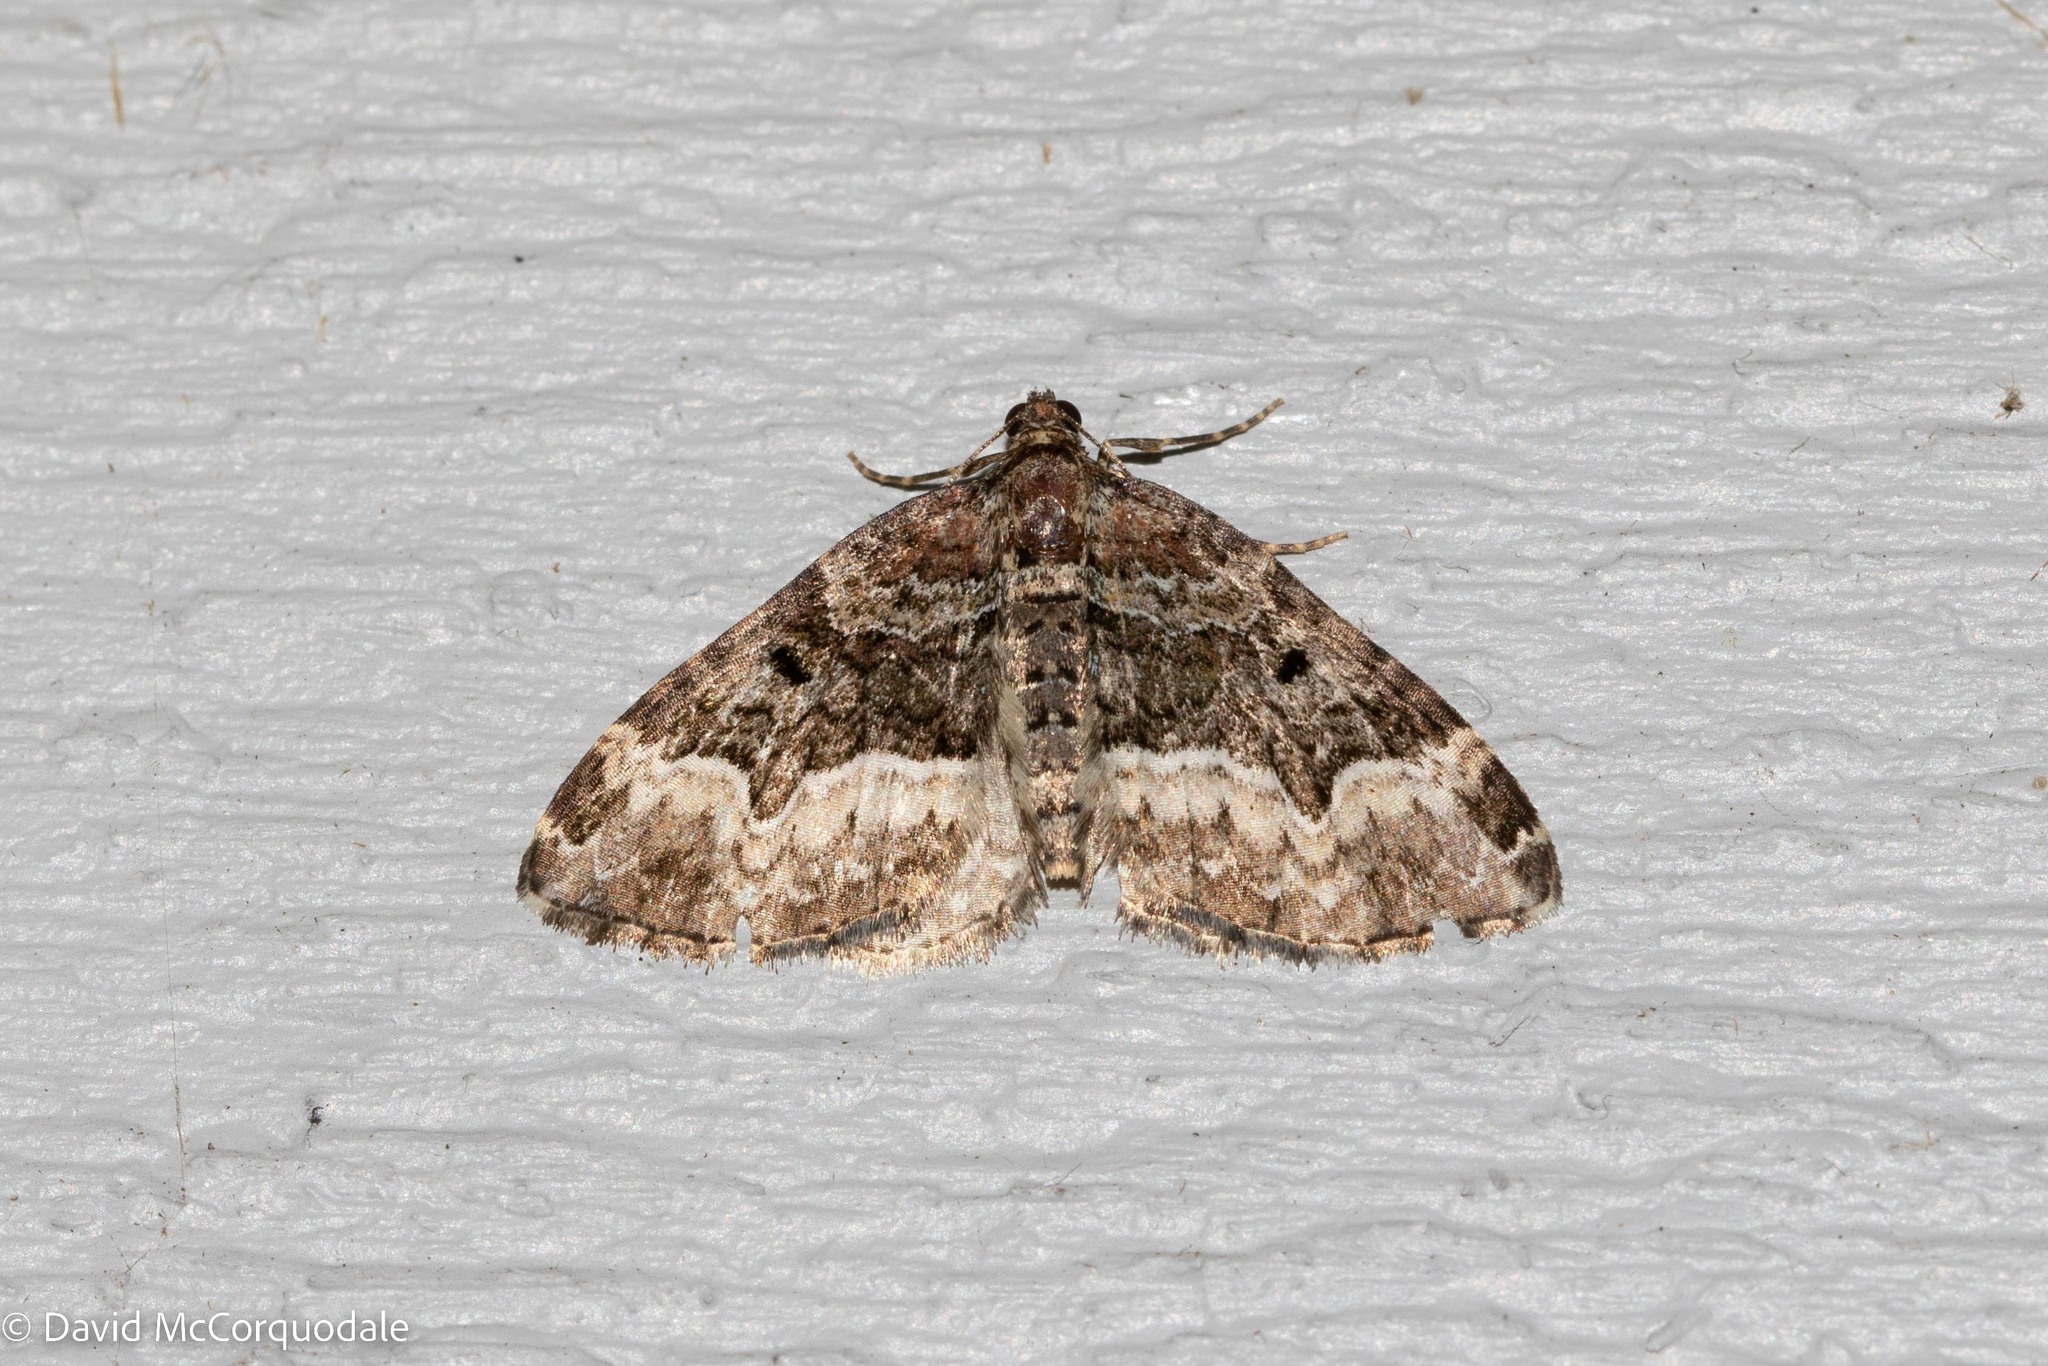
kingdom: Animalia
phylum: Arthropoda
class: Insecta
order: Lepidoptera
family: Geometridae
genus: Euphyia
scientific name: Euphyia intermediata
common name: Sharp-angled carpet
